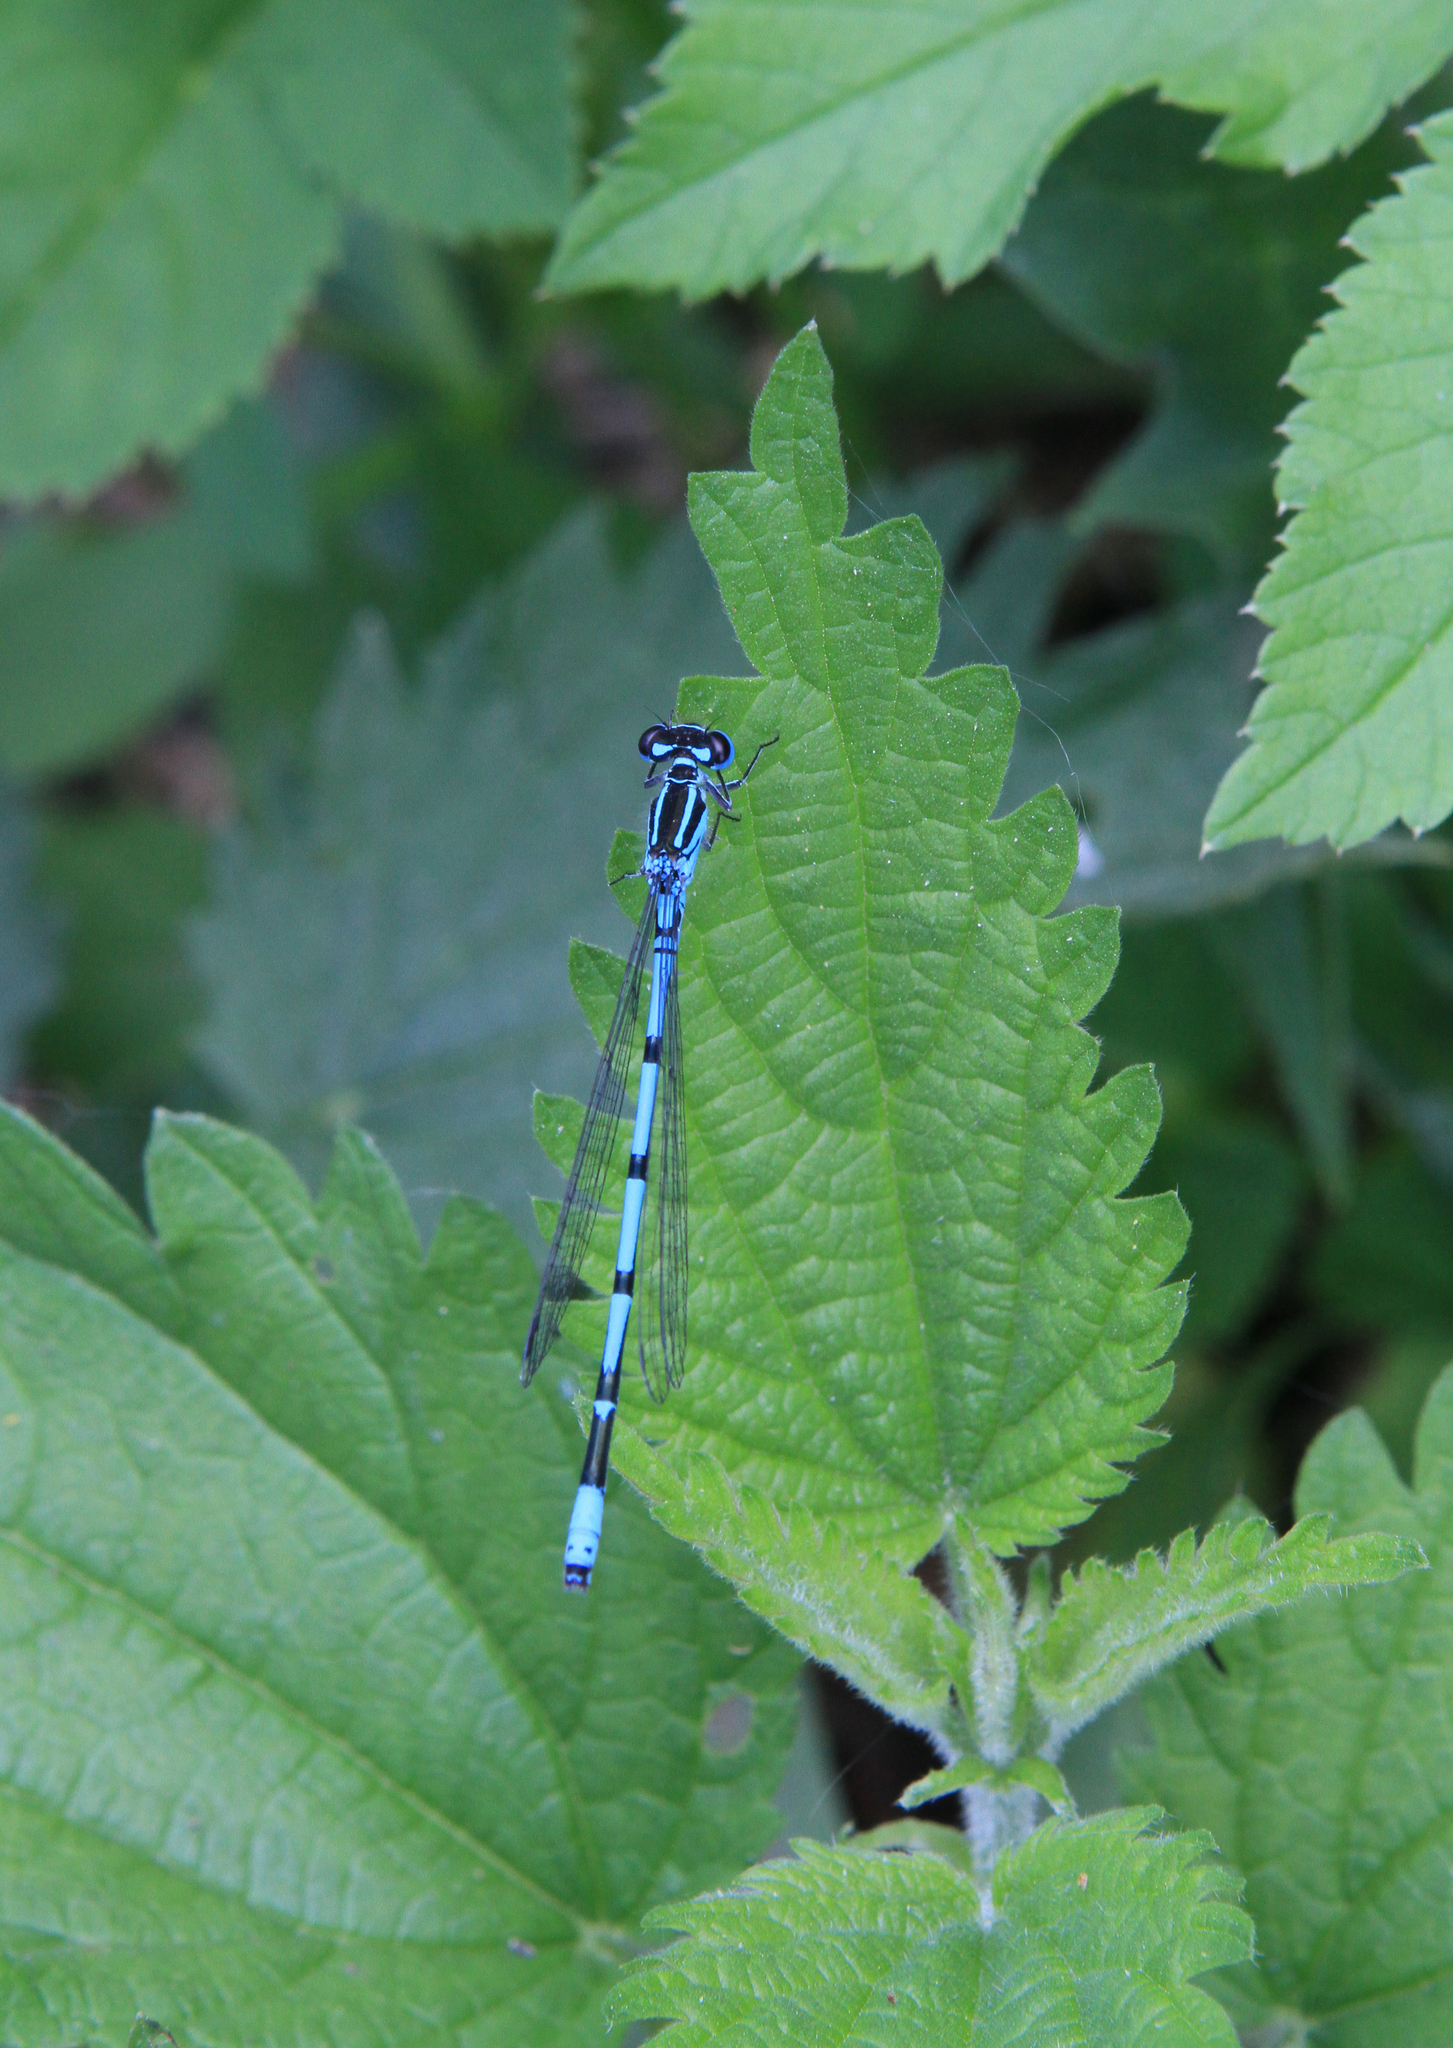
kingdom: Plantae
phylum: Tracheophyta
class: Magnoliopsida
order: Rosales
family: Urticaceae
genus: Urtica
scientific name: Urtica dioica
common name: Common nettle
